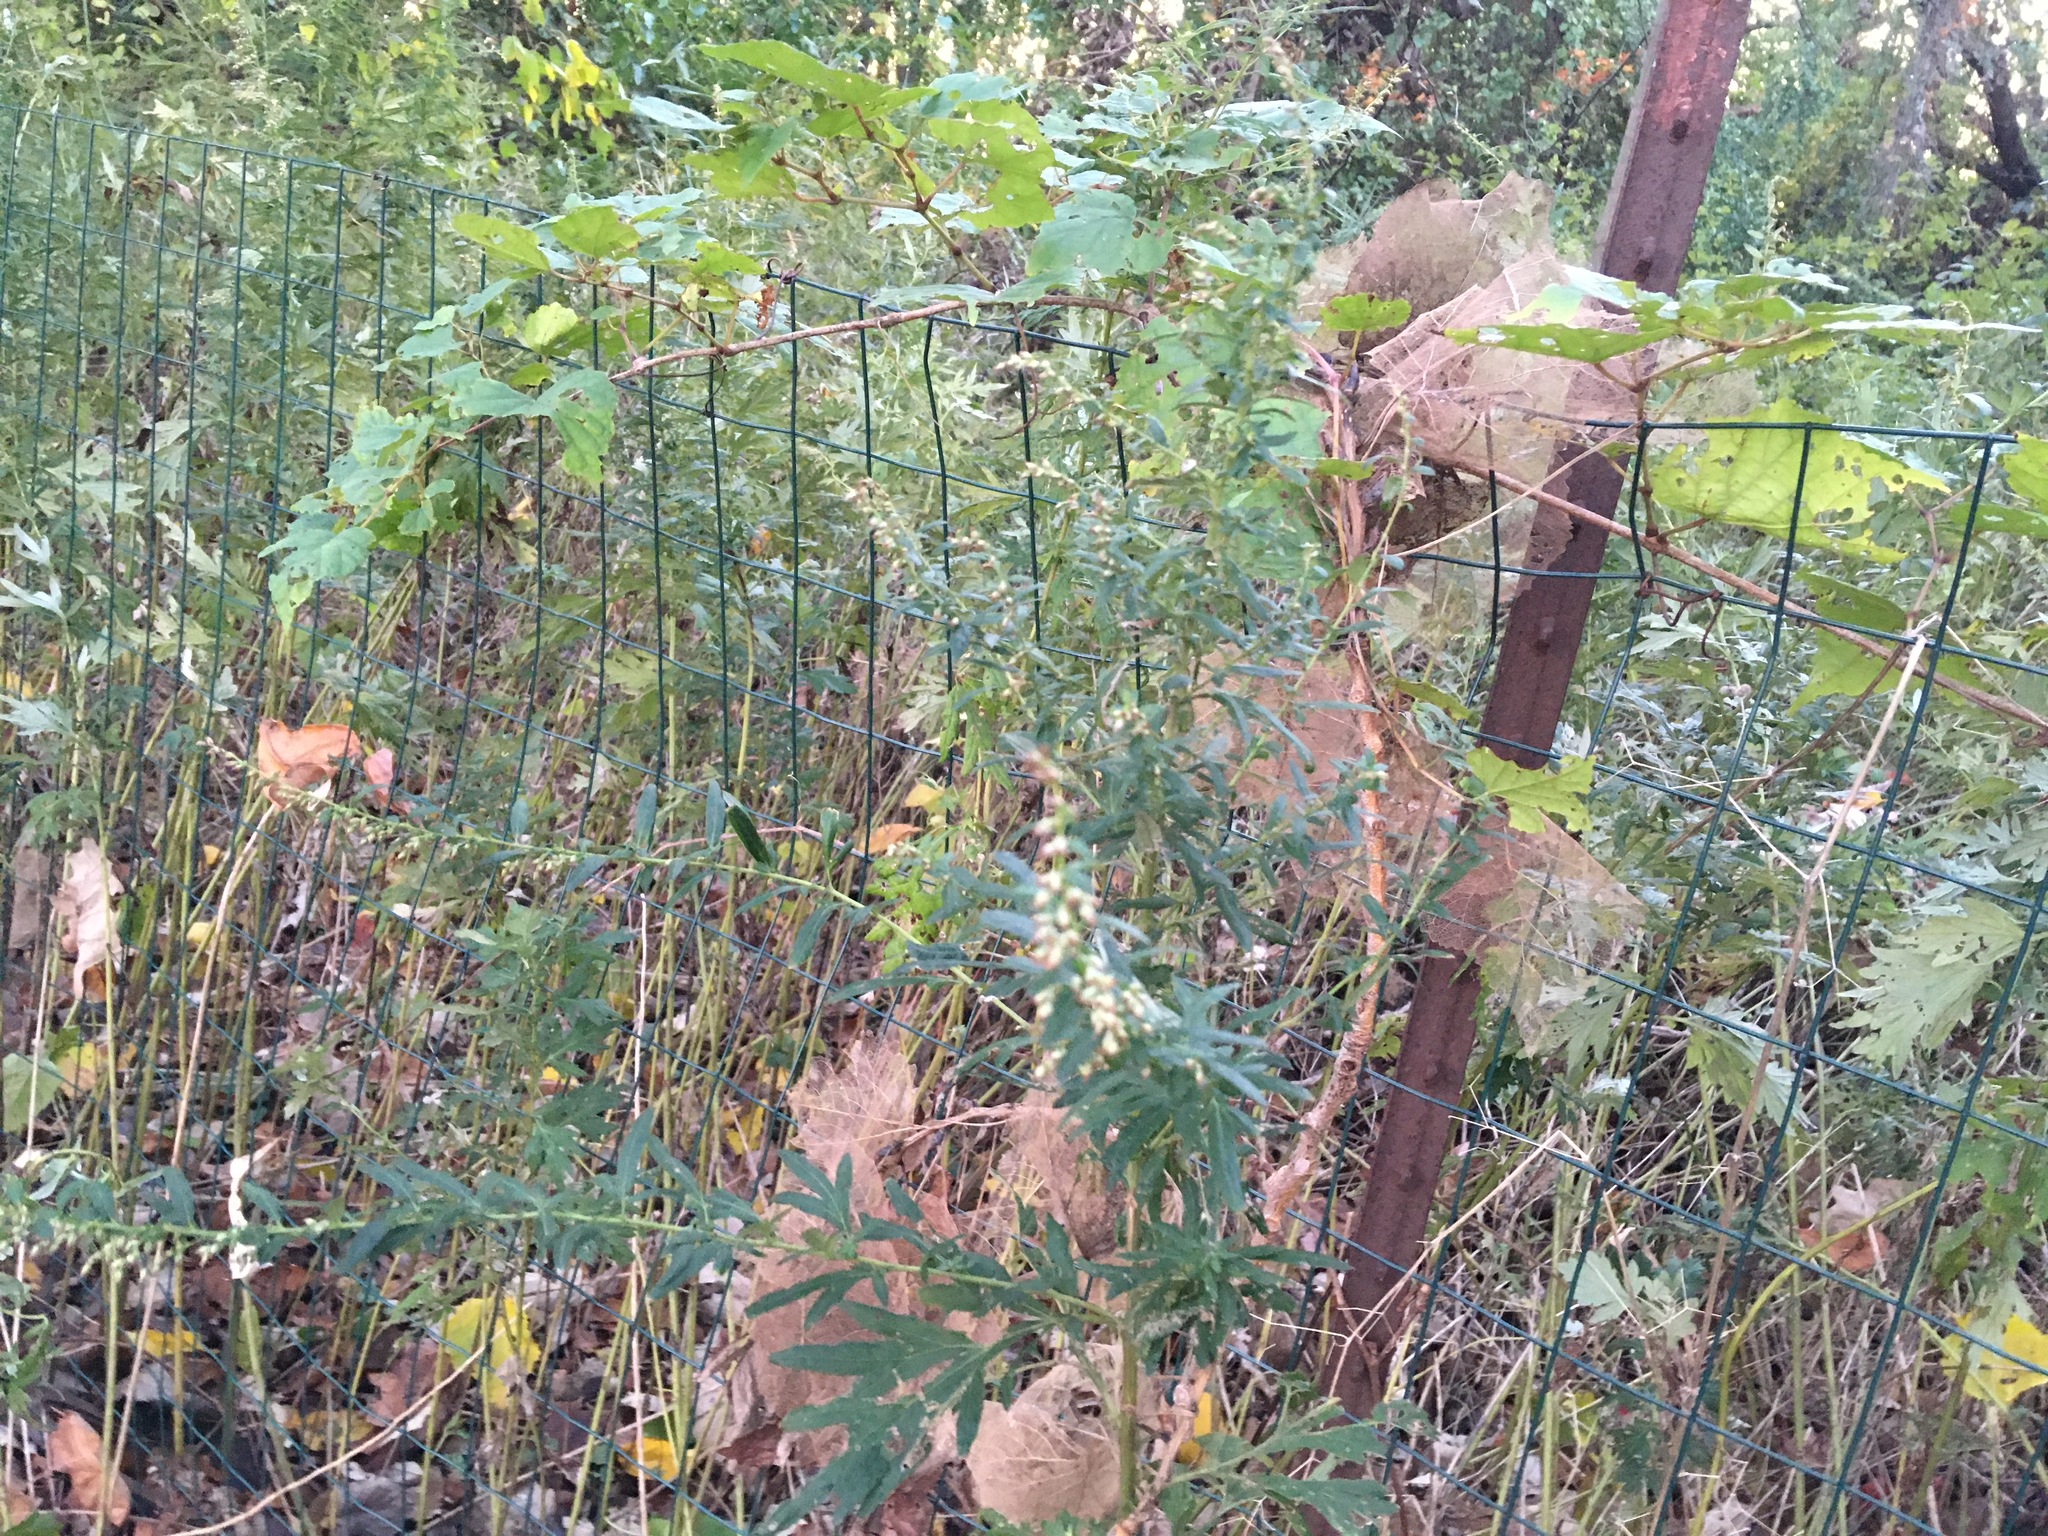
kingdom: Plantae
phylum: Tracheophyta
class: Magnoliopsida
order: Asterales
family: Asteraceae
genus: Artemisia
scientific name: Artemisia vulgaris
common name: Mugwort
